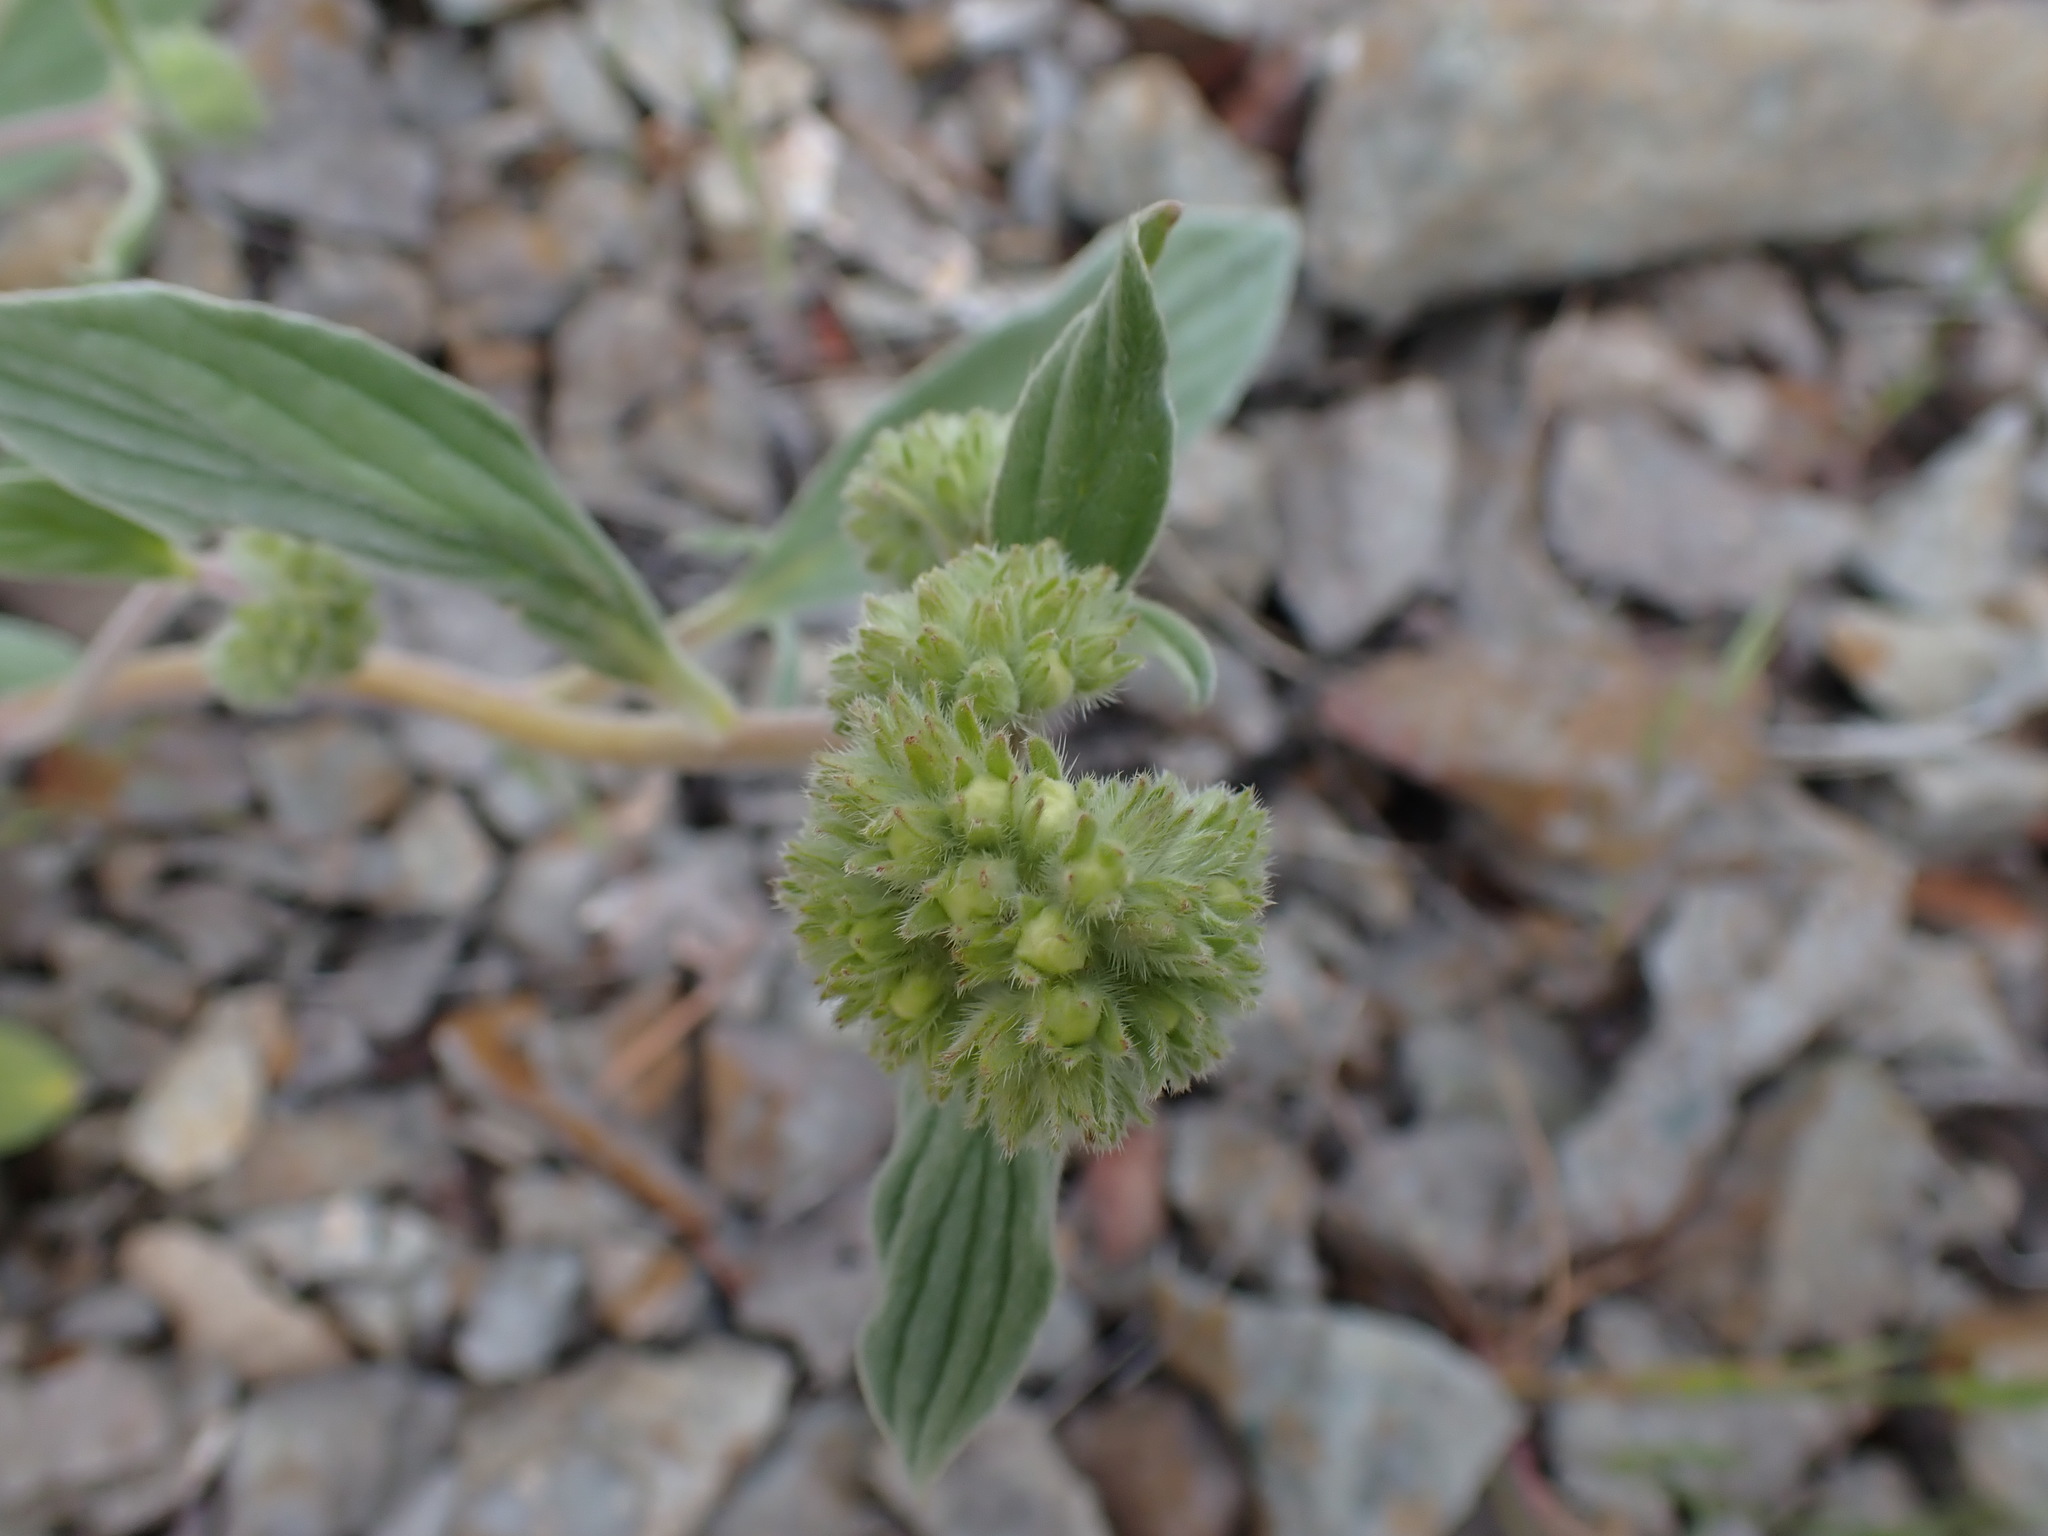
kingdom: Plantae
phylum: Tracheophyta
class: Magnoliopsida
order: Boraginales
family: Hydrophyllaceae
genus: Phacelia
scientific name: Phacelia hastata
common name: Silver-leaved phacelia
